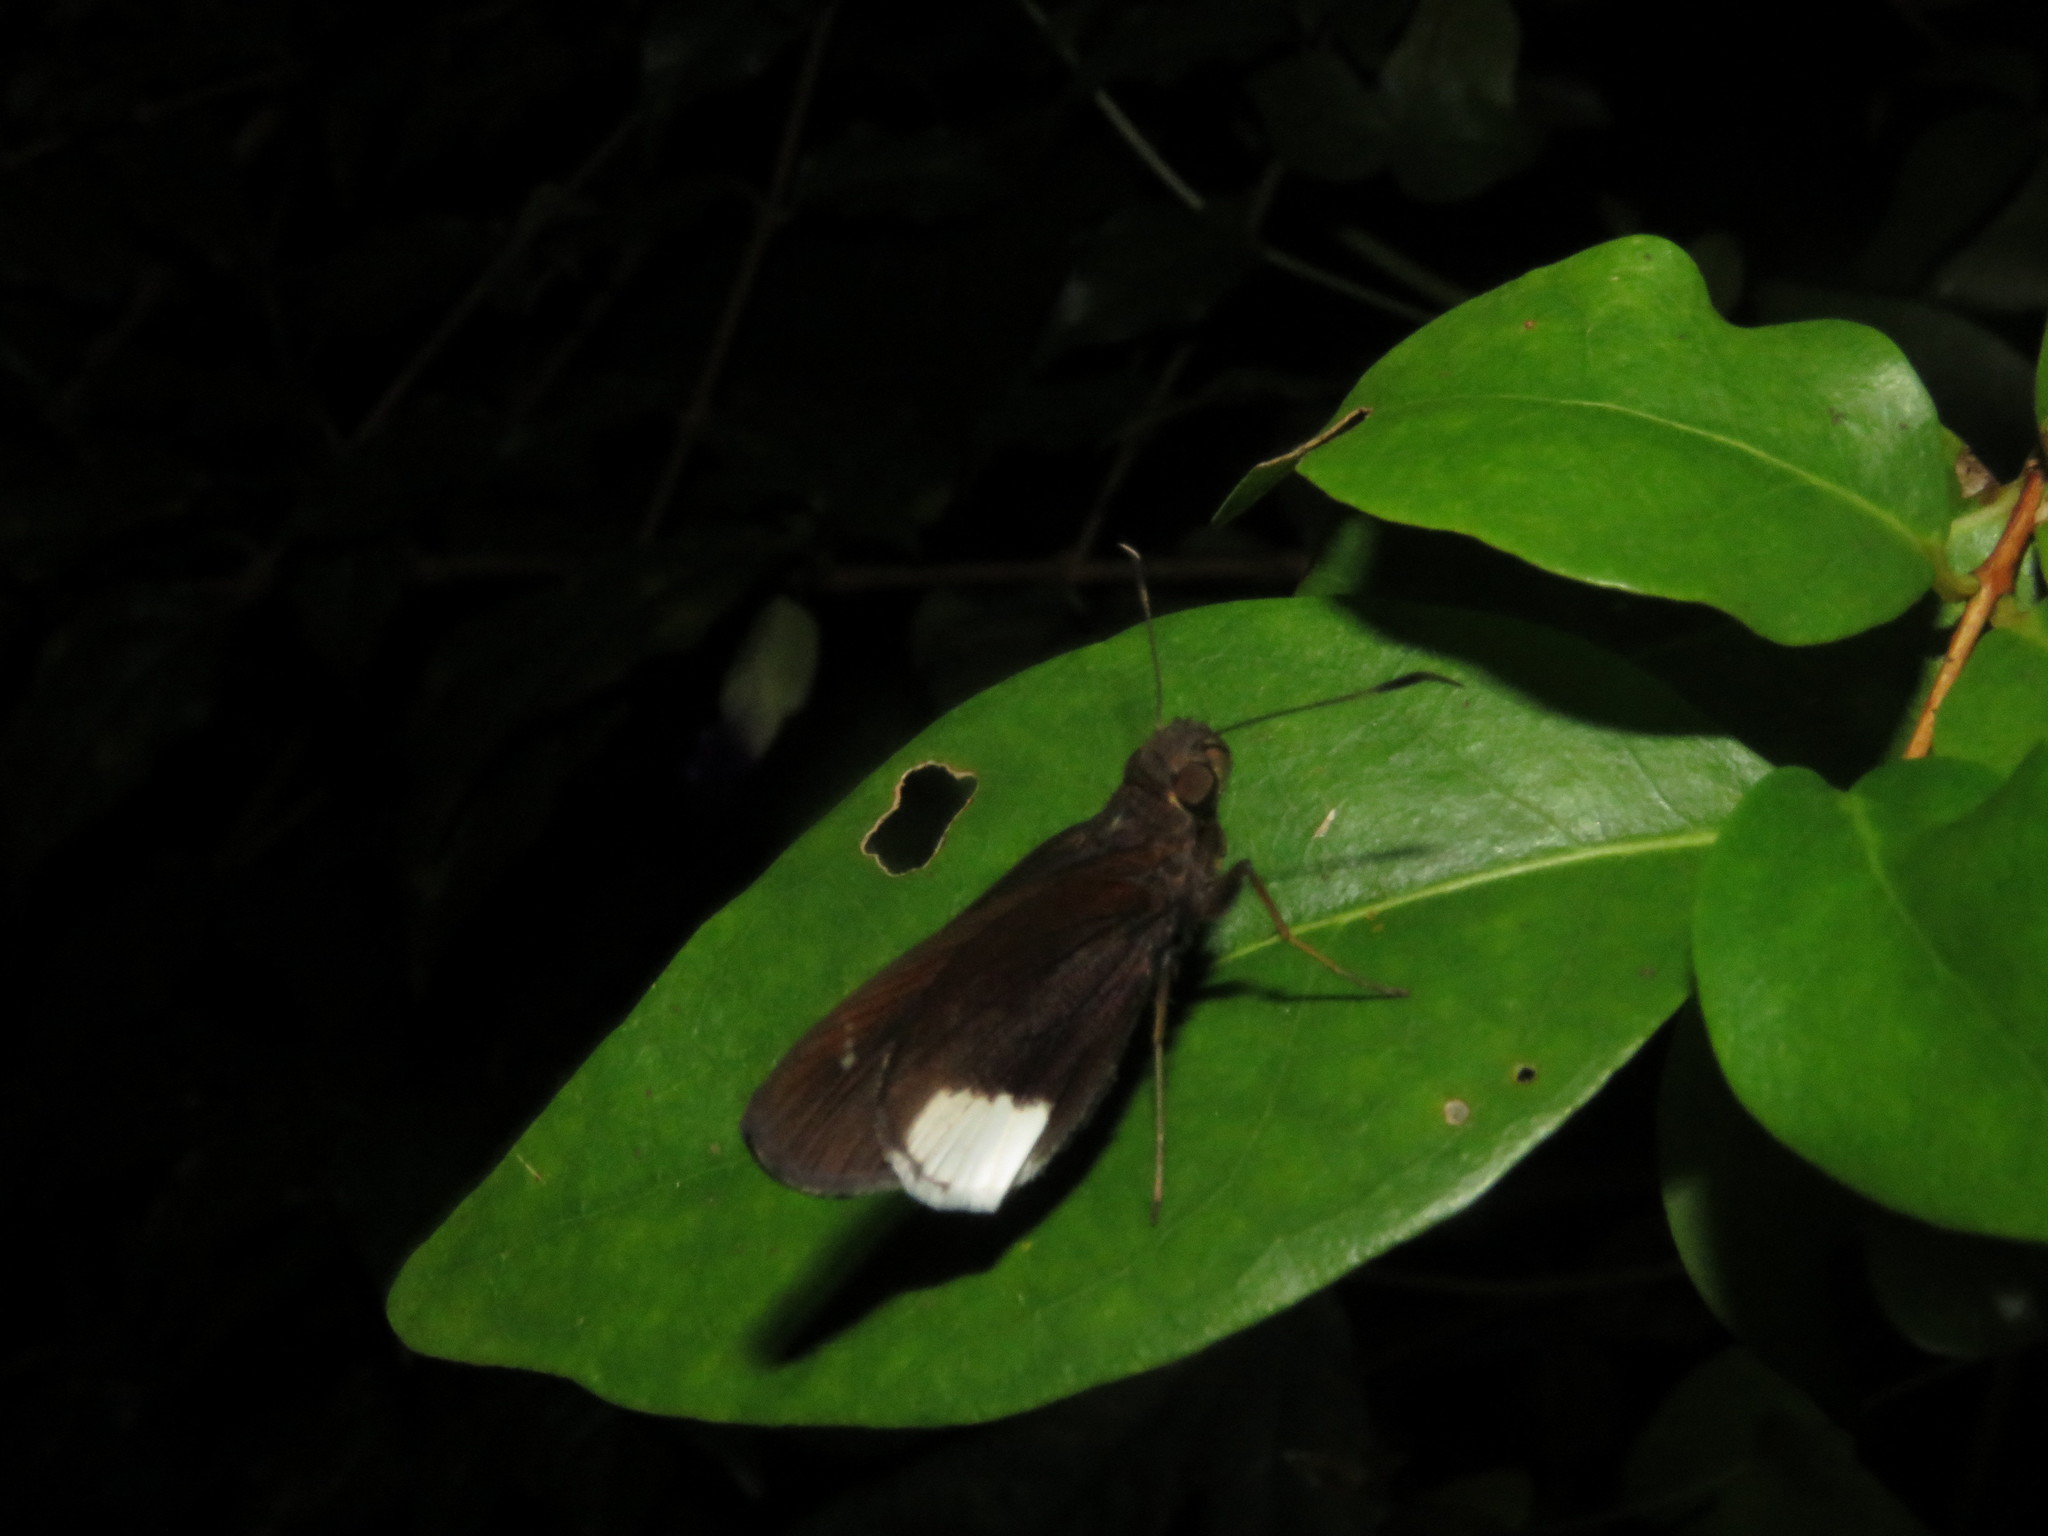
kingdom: Animalia
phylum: Arthropoda
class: Insecta
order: Lepidoptera
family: Hesperiidae
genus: Cobalus
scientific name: Cobalus virbius
